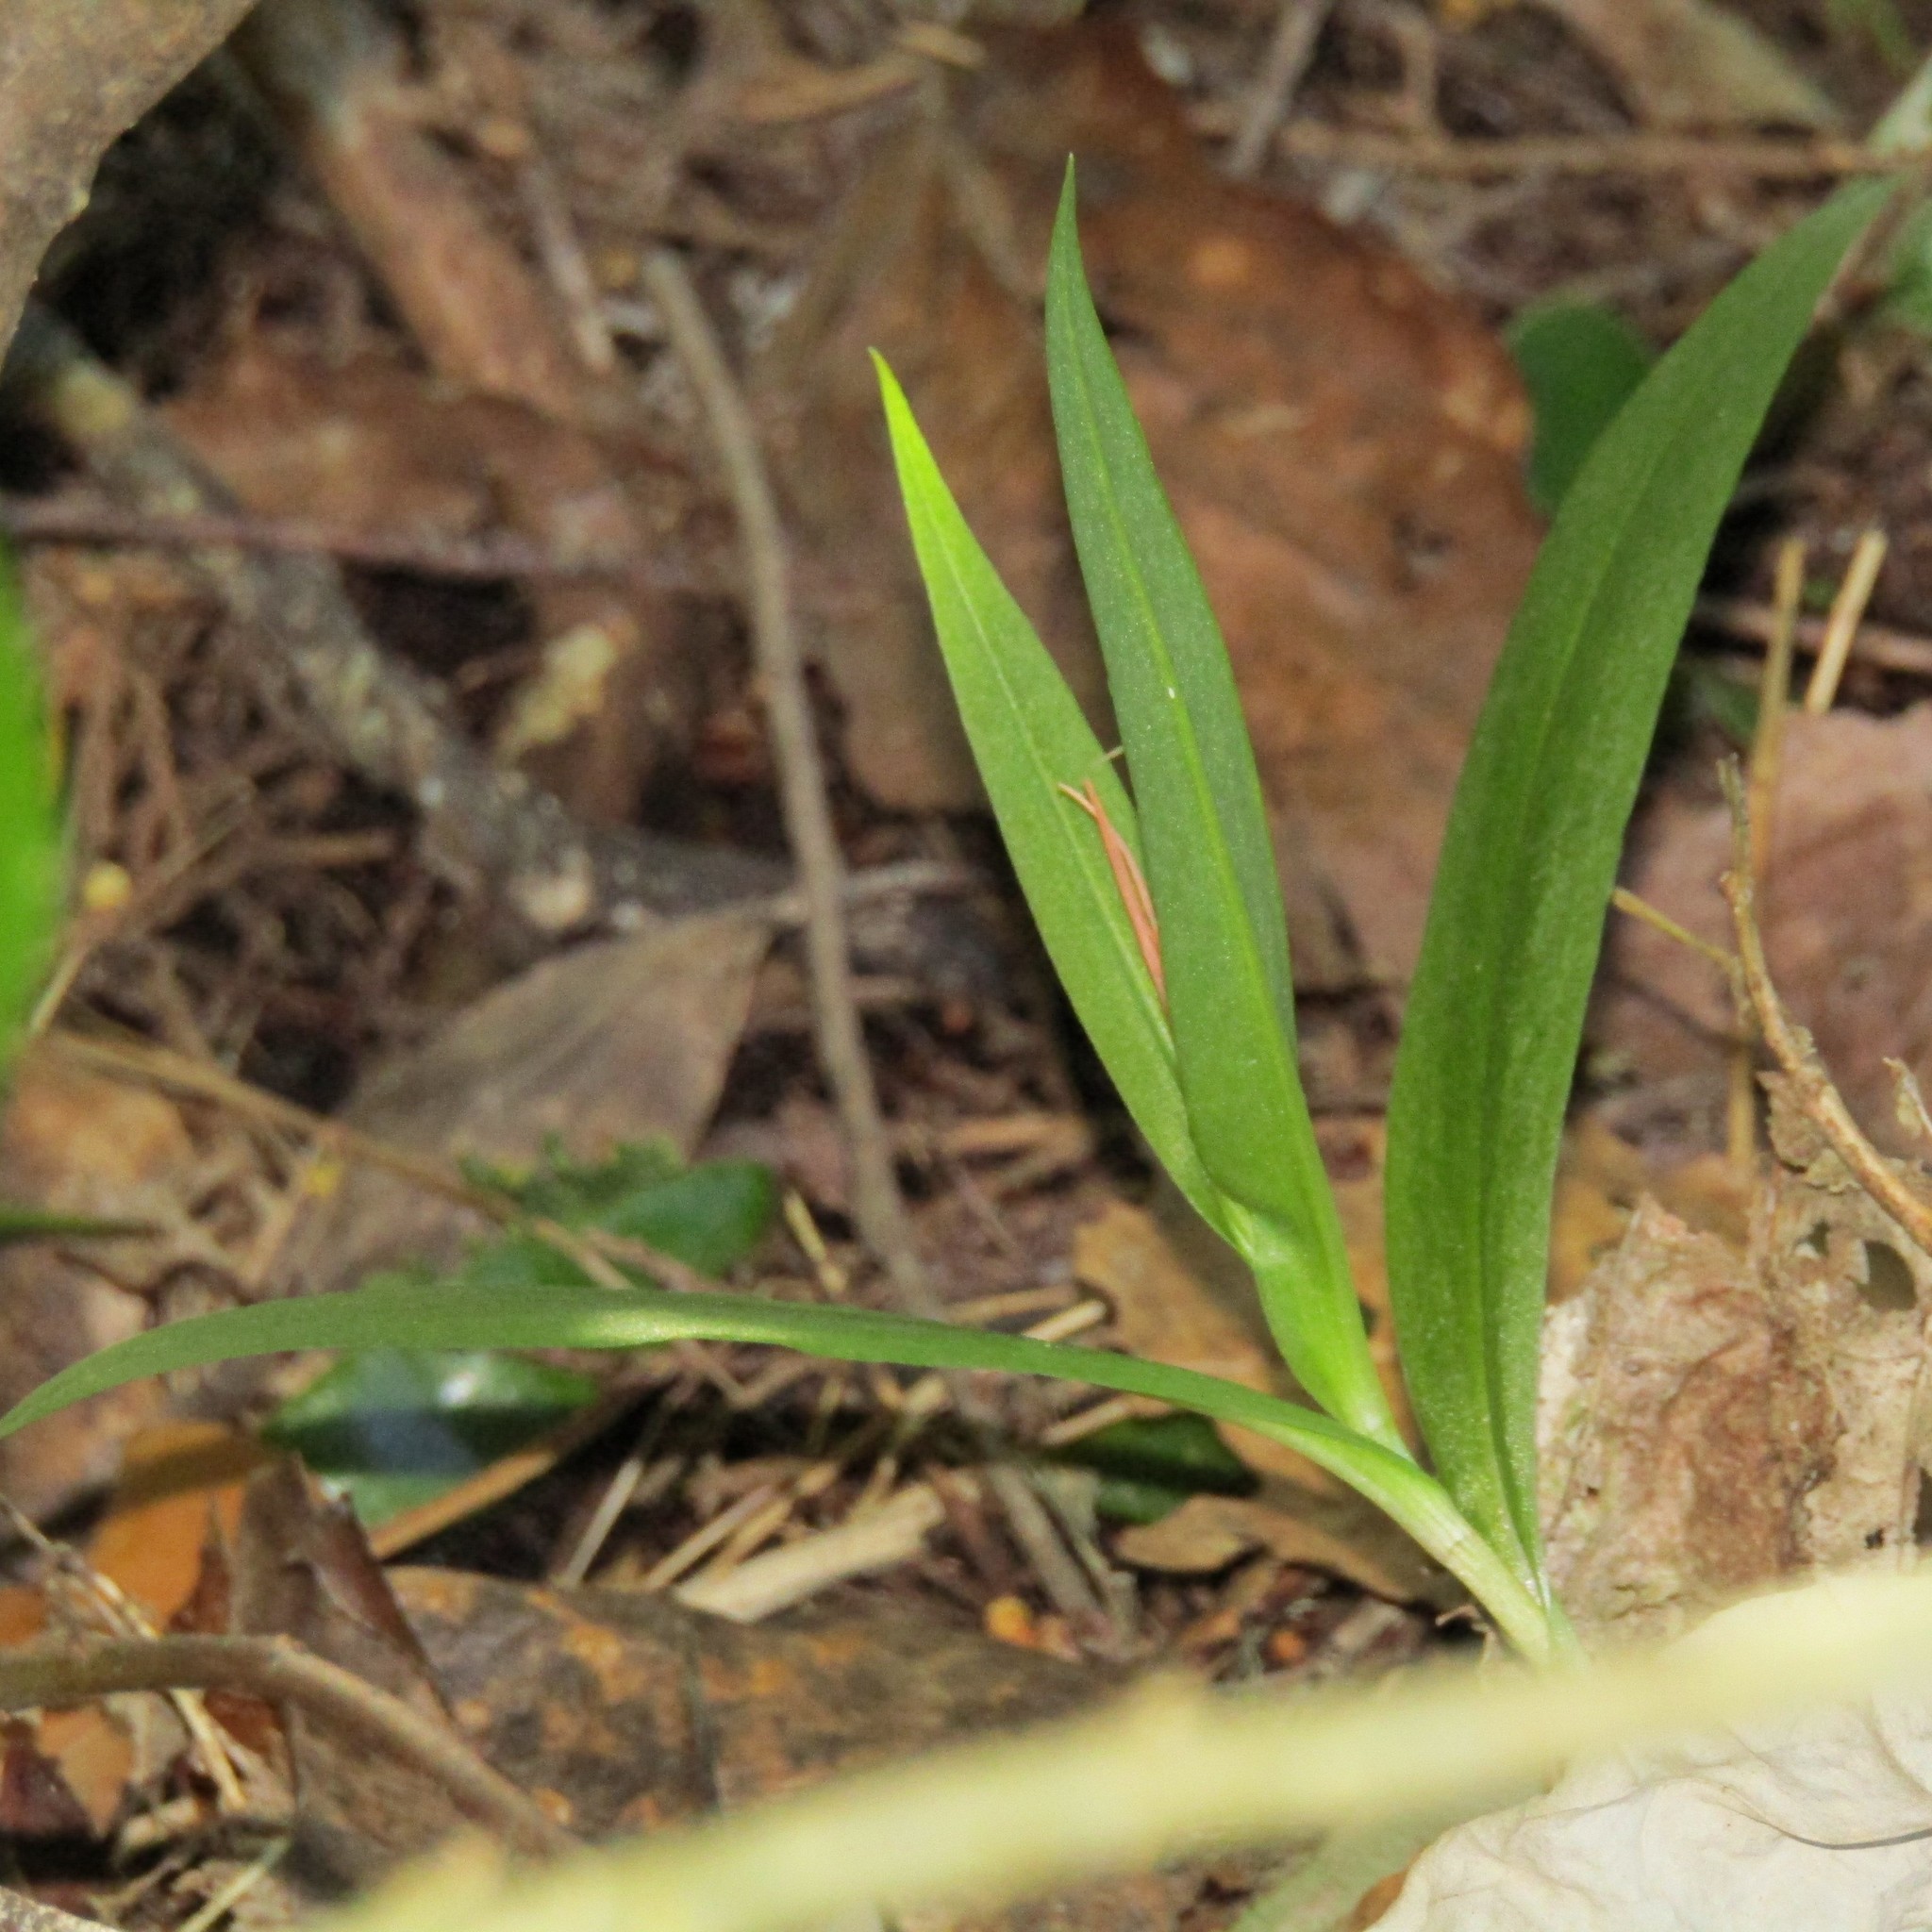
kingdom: Plantae
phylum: Tracheophyta
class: Liliopsida
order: Asparagales
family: Orchidaceae
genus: Pterostylis
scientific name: Pterostylis banksii
